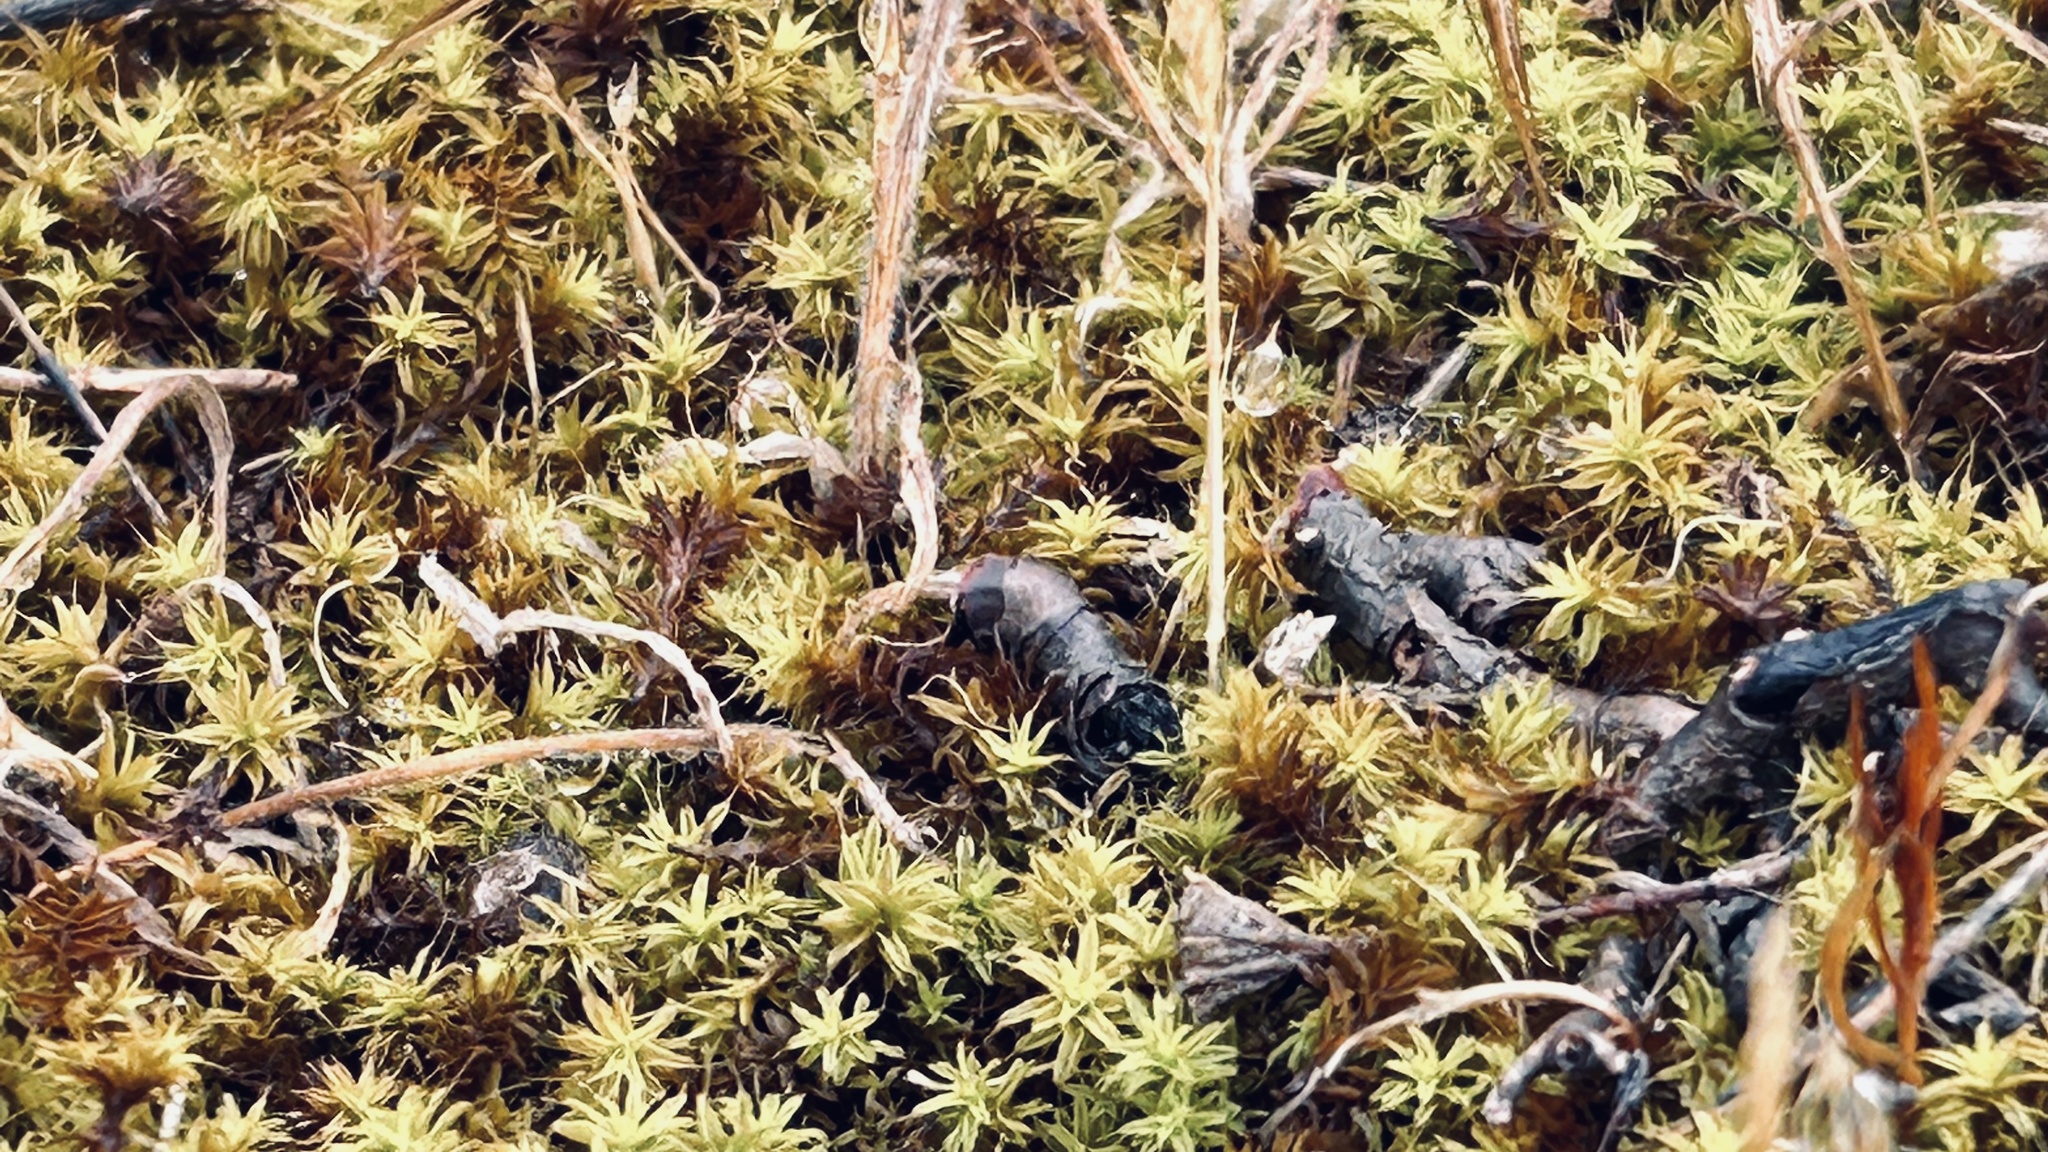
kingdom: Plantae
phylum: Bryophyta
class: Bryopsida
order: Pottiales
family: Pottiaceae
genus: Pseudocrossidium
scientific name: Pseudocrossidium crinitum
